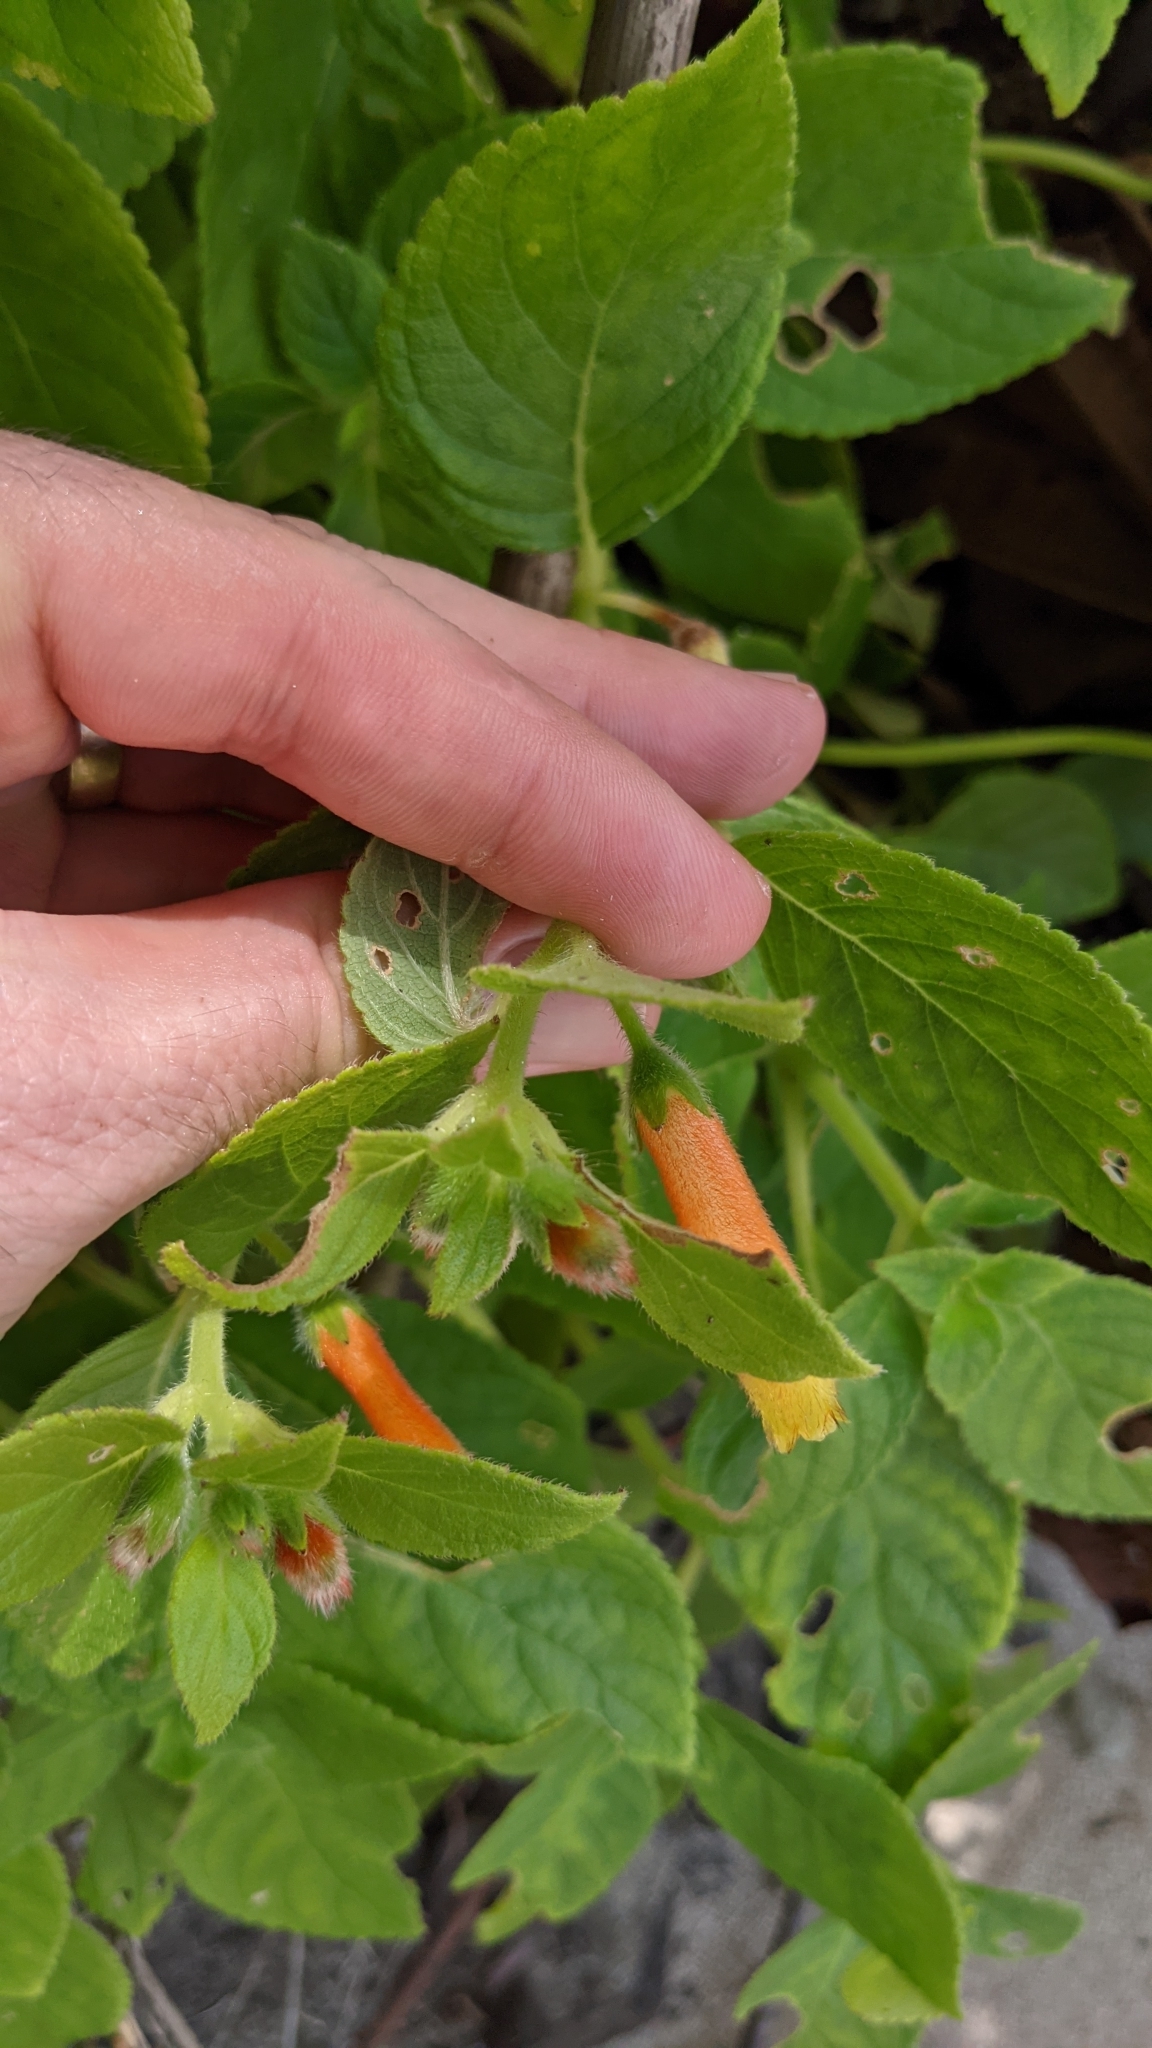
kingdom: Plantae
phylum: Tracheophyta
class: Magnoliopsida
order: Lamiales
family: Gesneriaceae
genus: Kohleria
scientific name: Kohleria tubiflora
